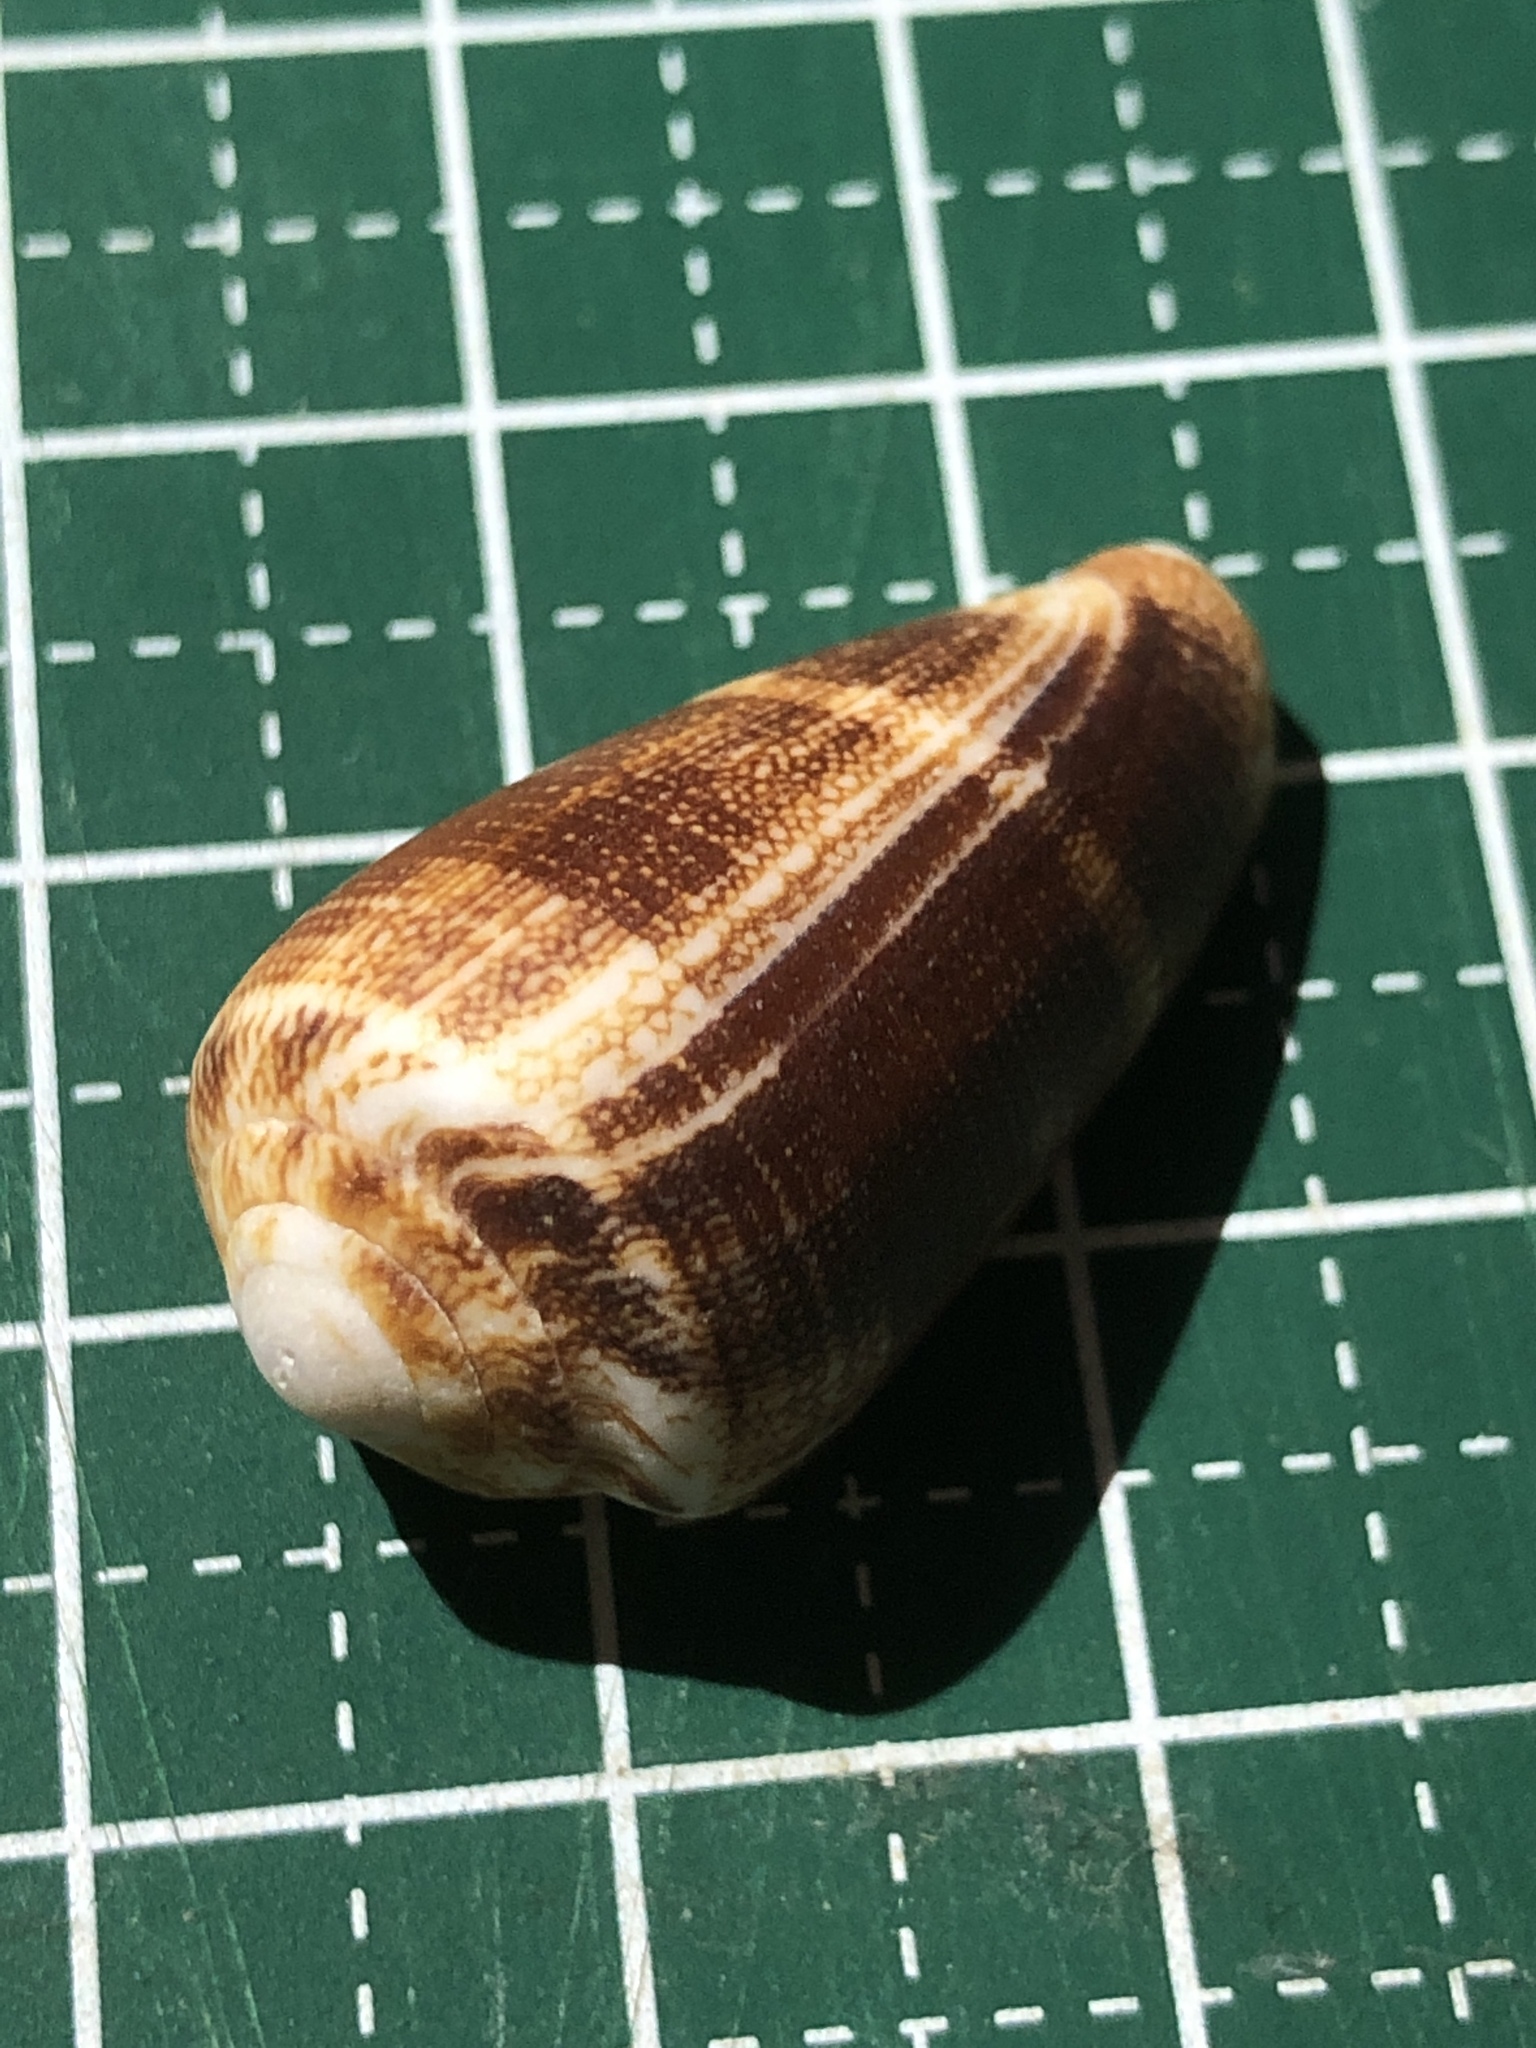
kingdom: Animalia
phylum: Mollusca
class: Gastropoda
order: Neogastropoda
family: Conidae
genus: Conus
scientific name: Conus omaria
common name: Omaria cone
